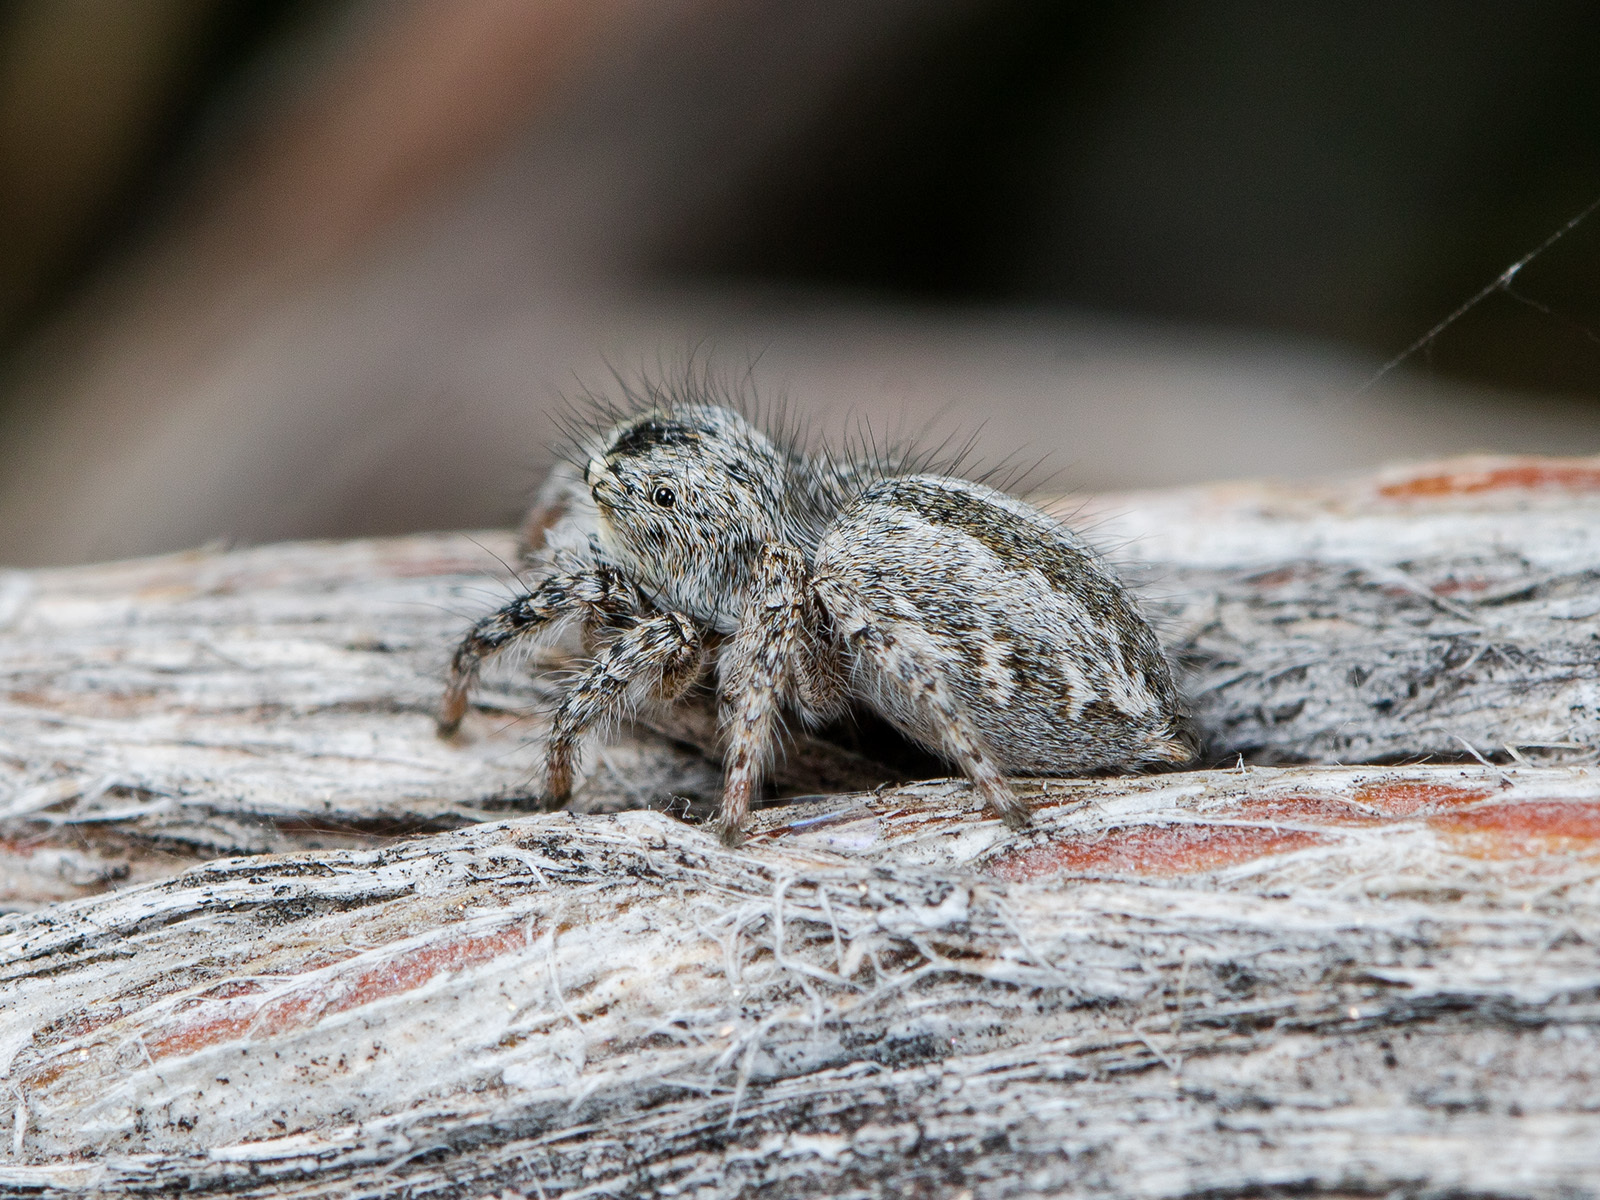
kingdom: Animalia
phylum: Arthropoda
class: Arachnida
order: Araneae
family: Salticidae
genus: Mogrus
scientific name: Mogrus larisae
